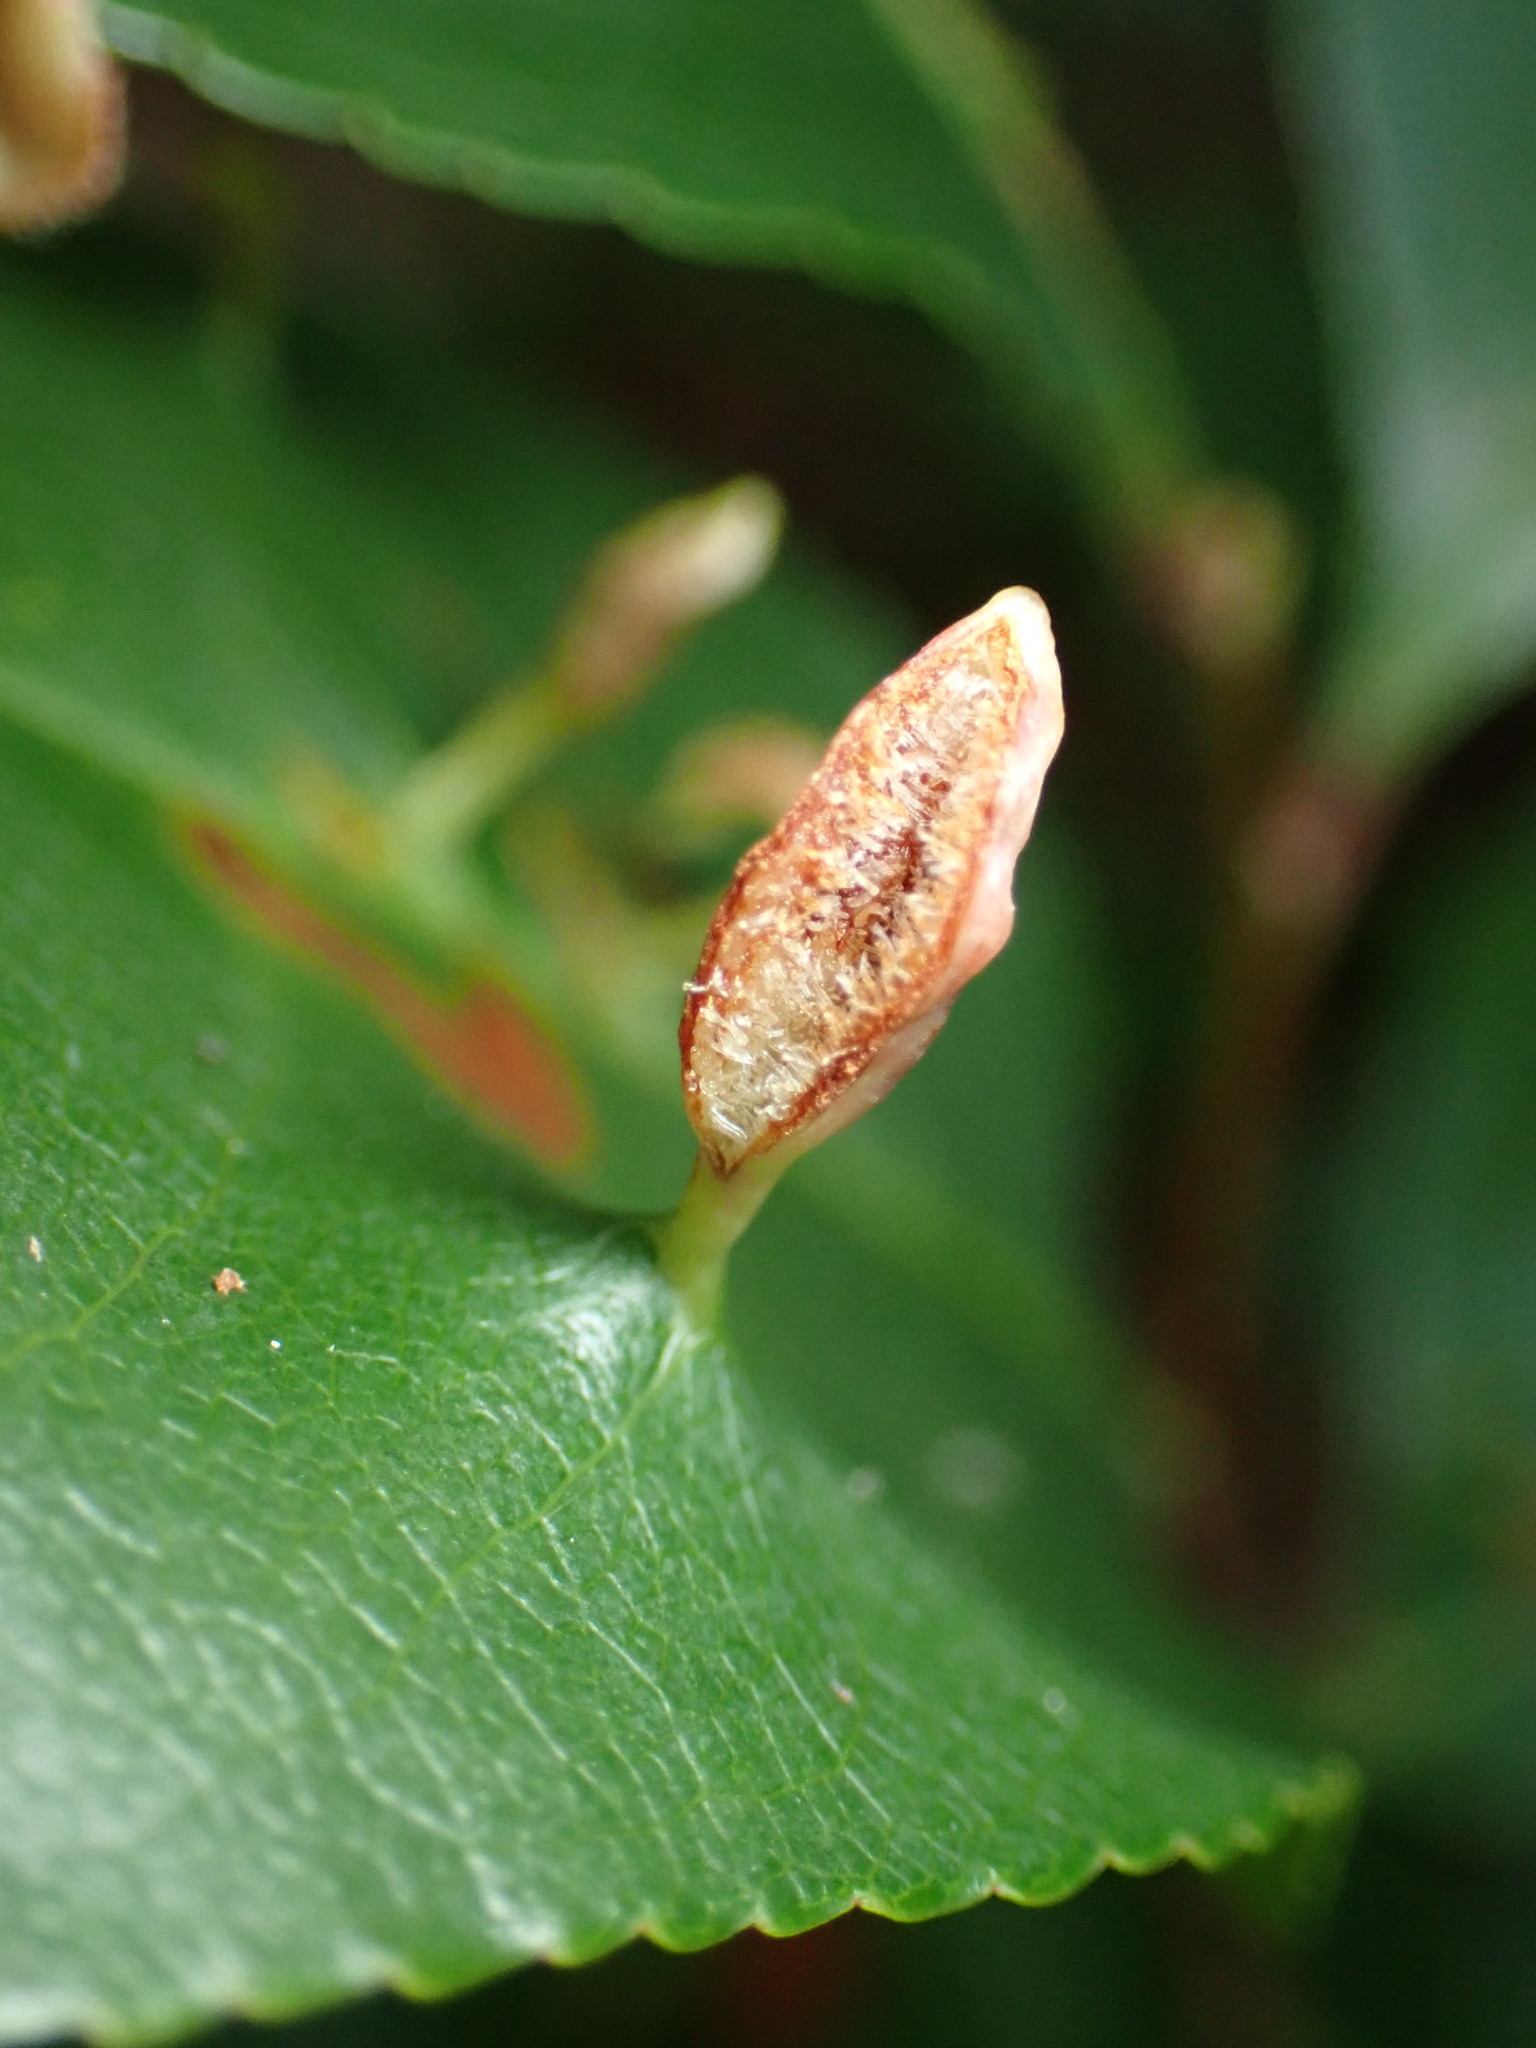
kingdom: Animalia
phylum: Arthropoda
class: Arachnida
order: Trombidiformes
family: Eriophyidae
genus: Eriophyes
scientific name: Eriophyes
